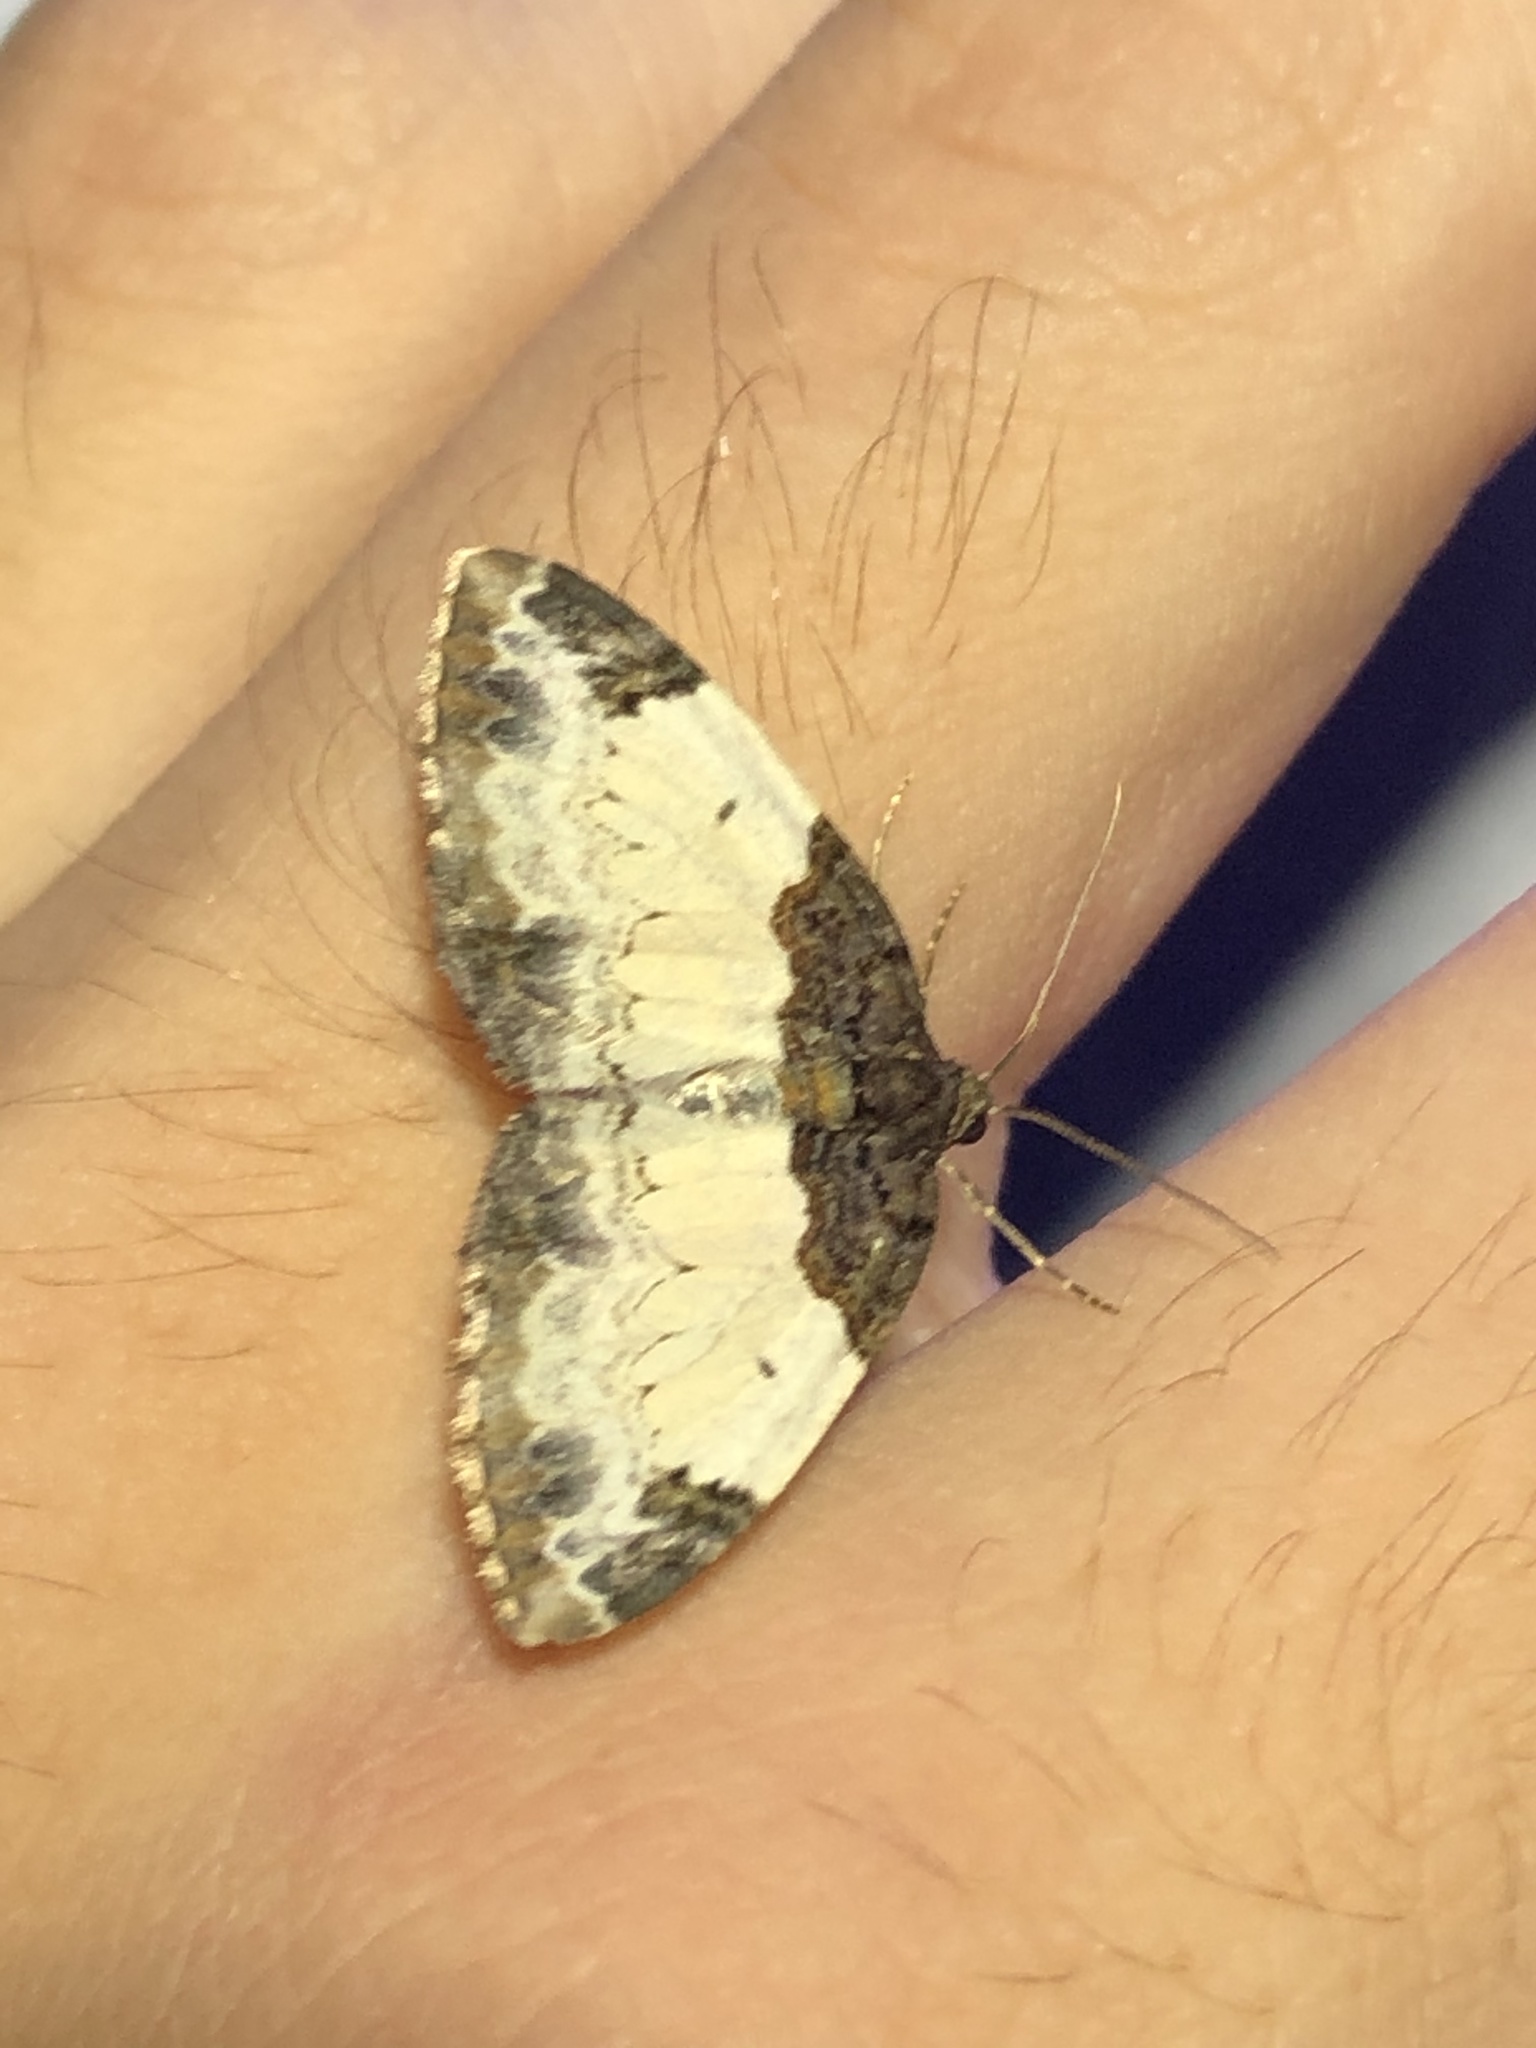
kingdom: Animalia
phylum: Arthropoda
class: Insecta
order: Lepidoptera
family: Geometridae
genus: Mesoleuca
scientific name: Mesoleuca ruficillata
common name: White-ribboned carpet moth
